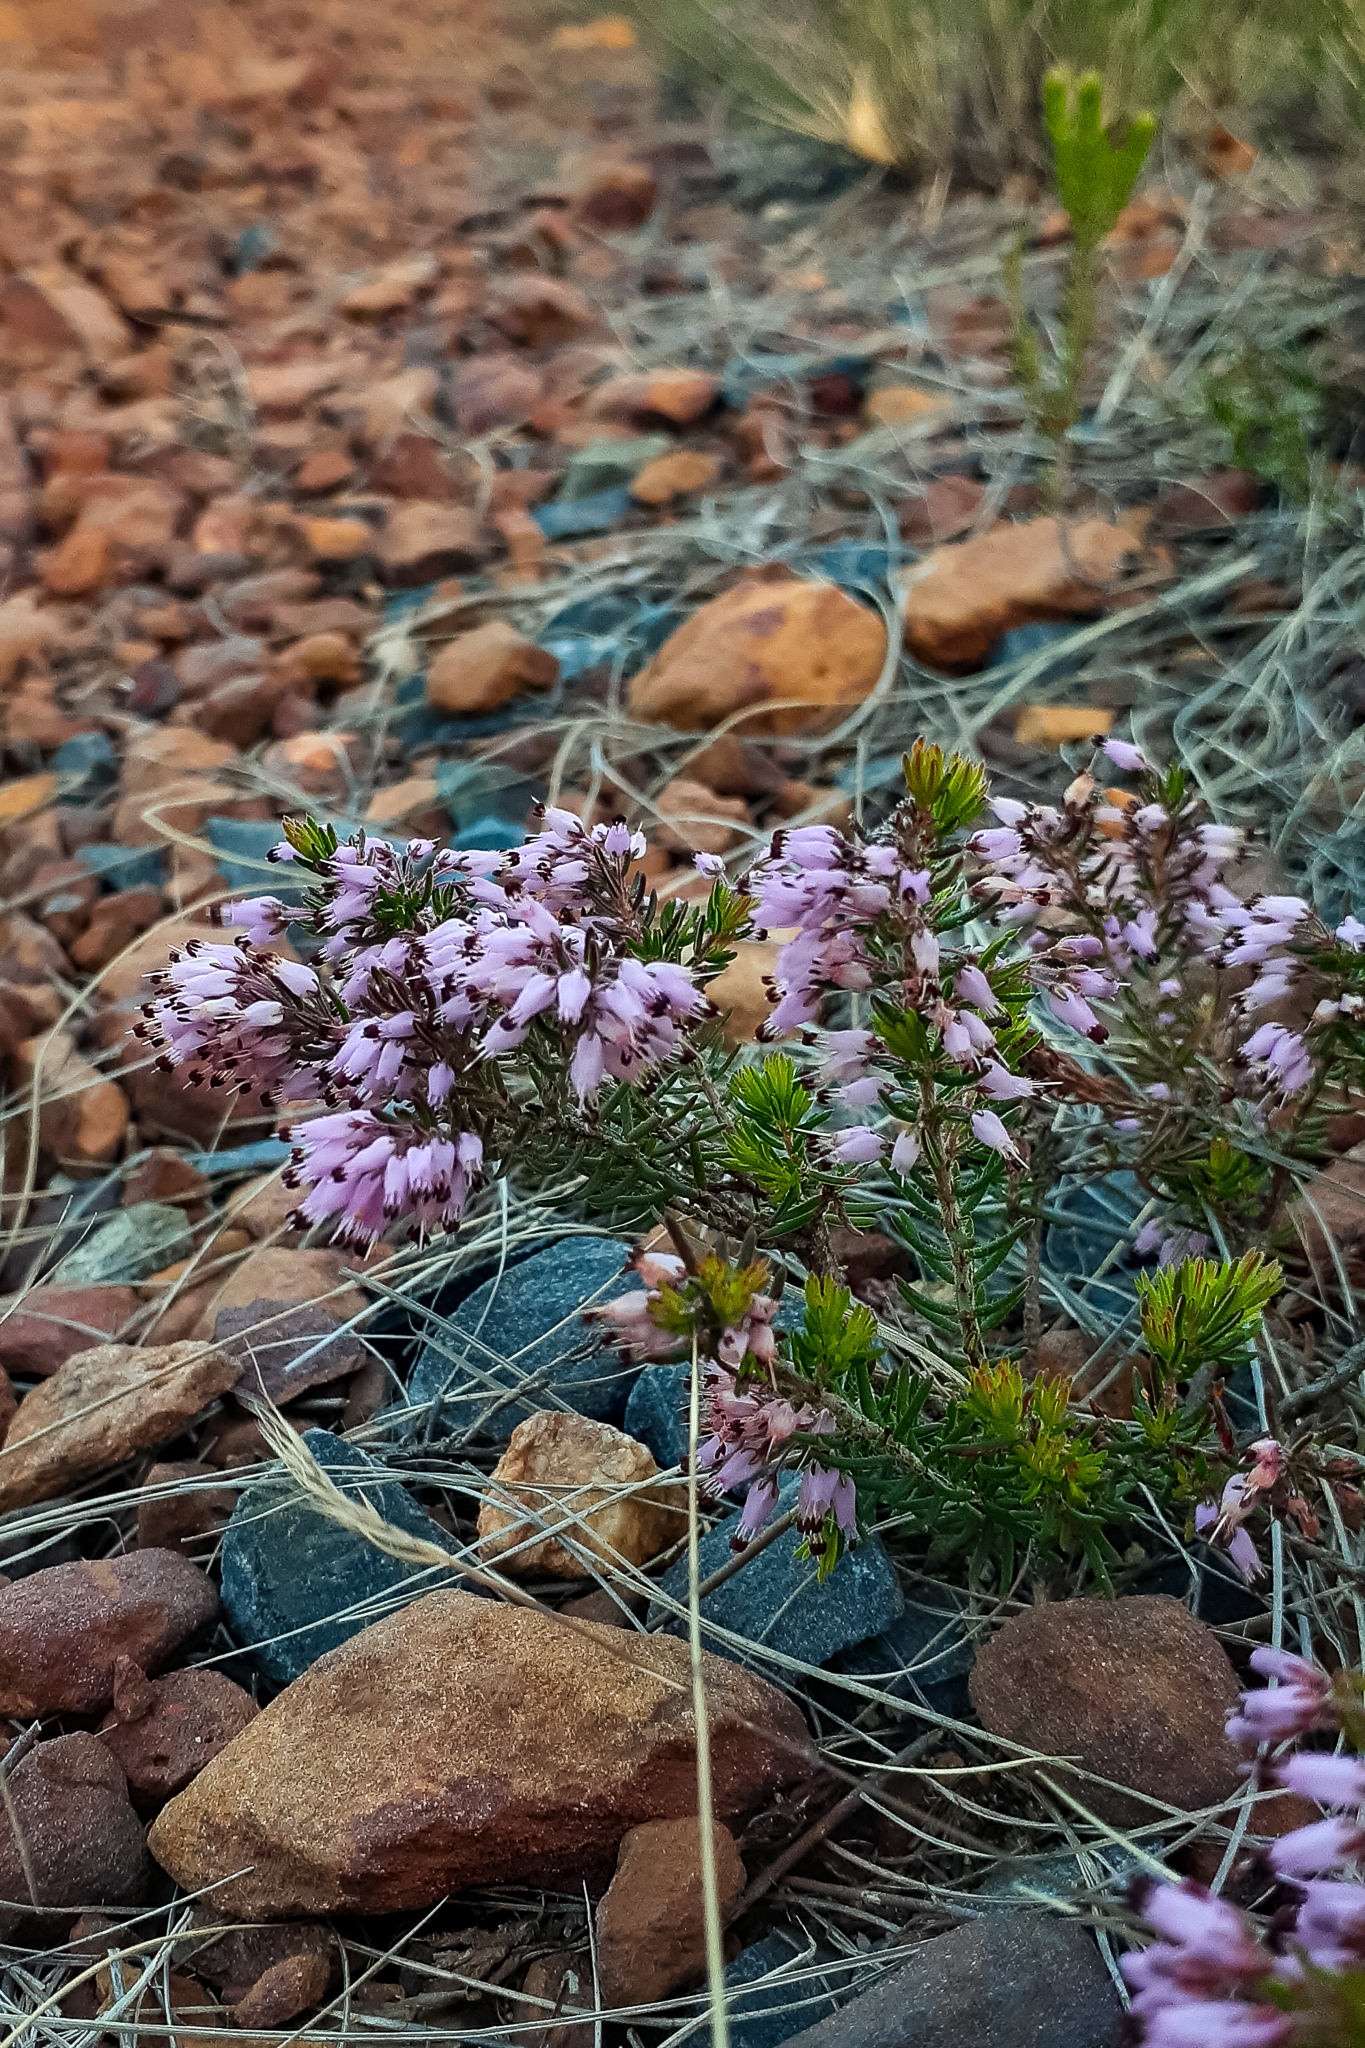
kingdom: Plantae
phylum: Tracheophyta
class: Magnoliopsida
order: Ericales
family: Ericaceae
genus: Erica
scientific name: Erica nudiflora
